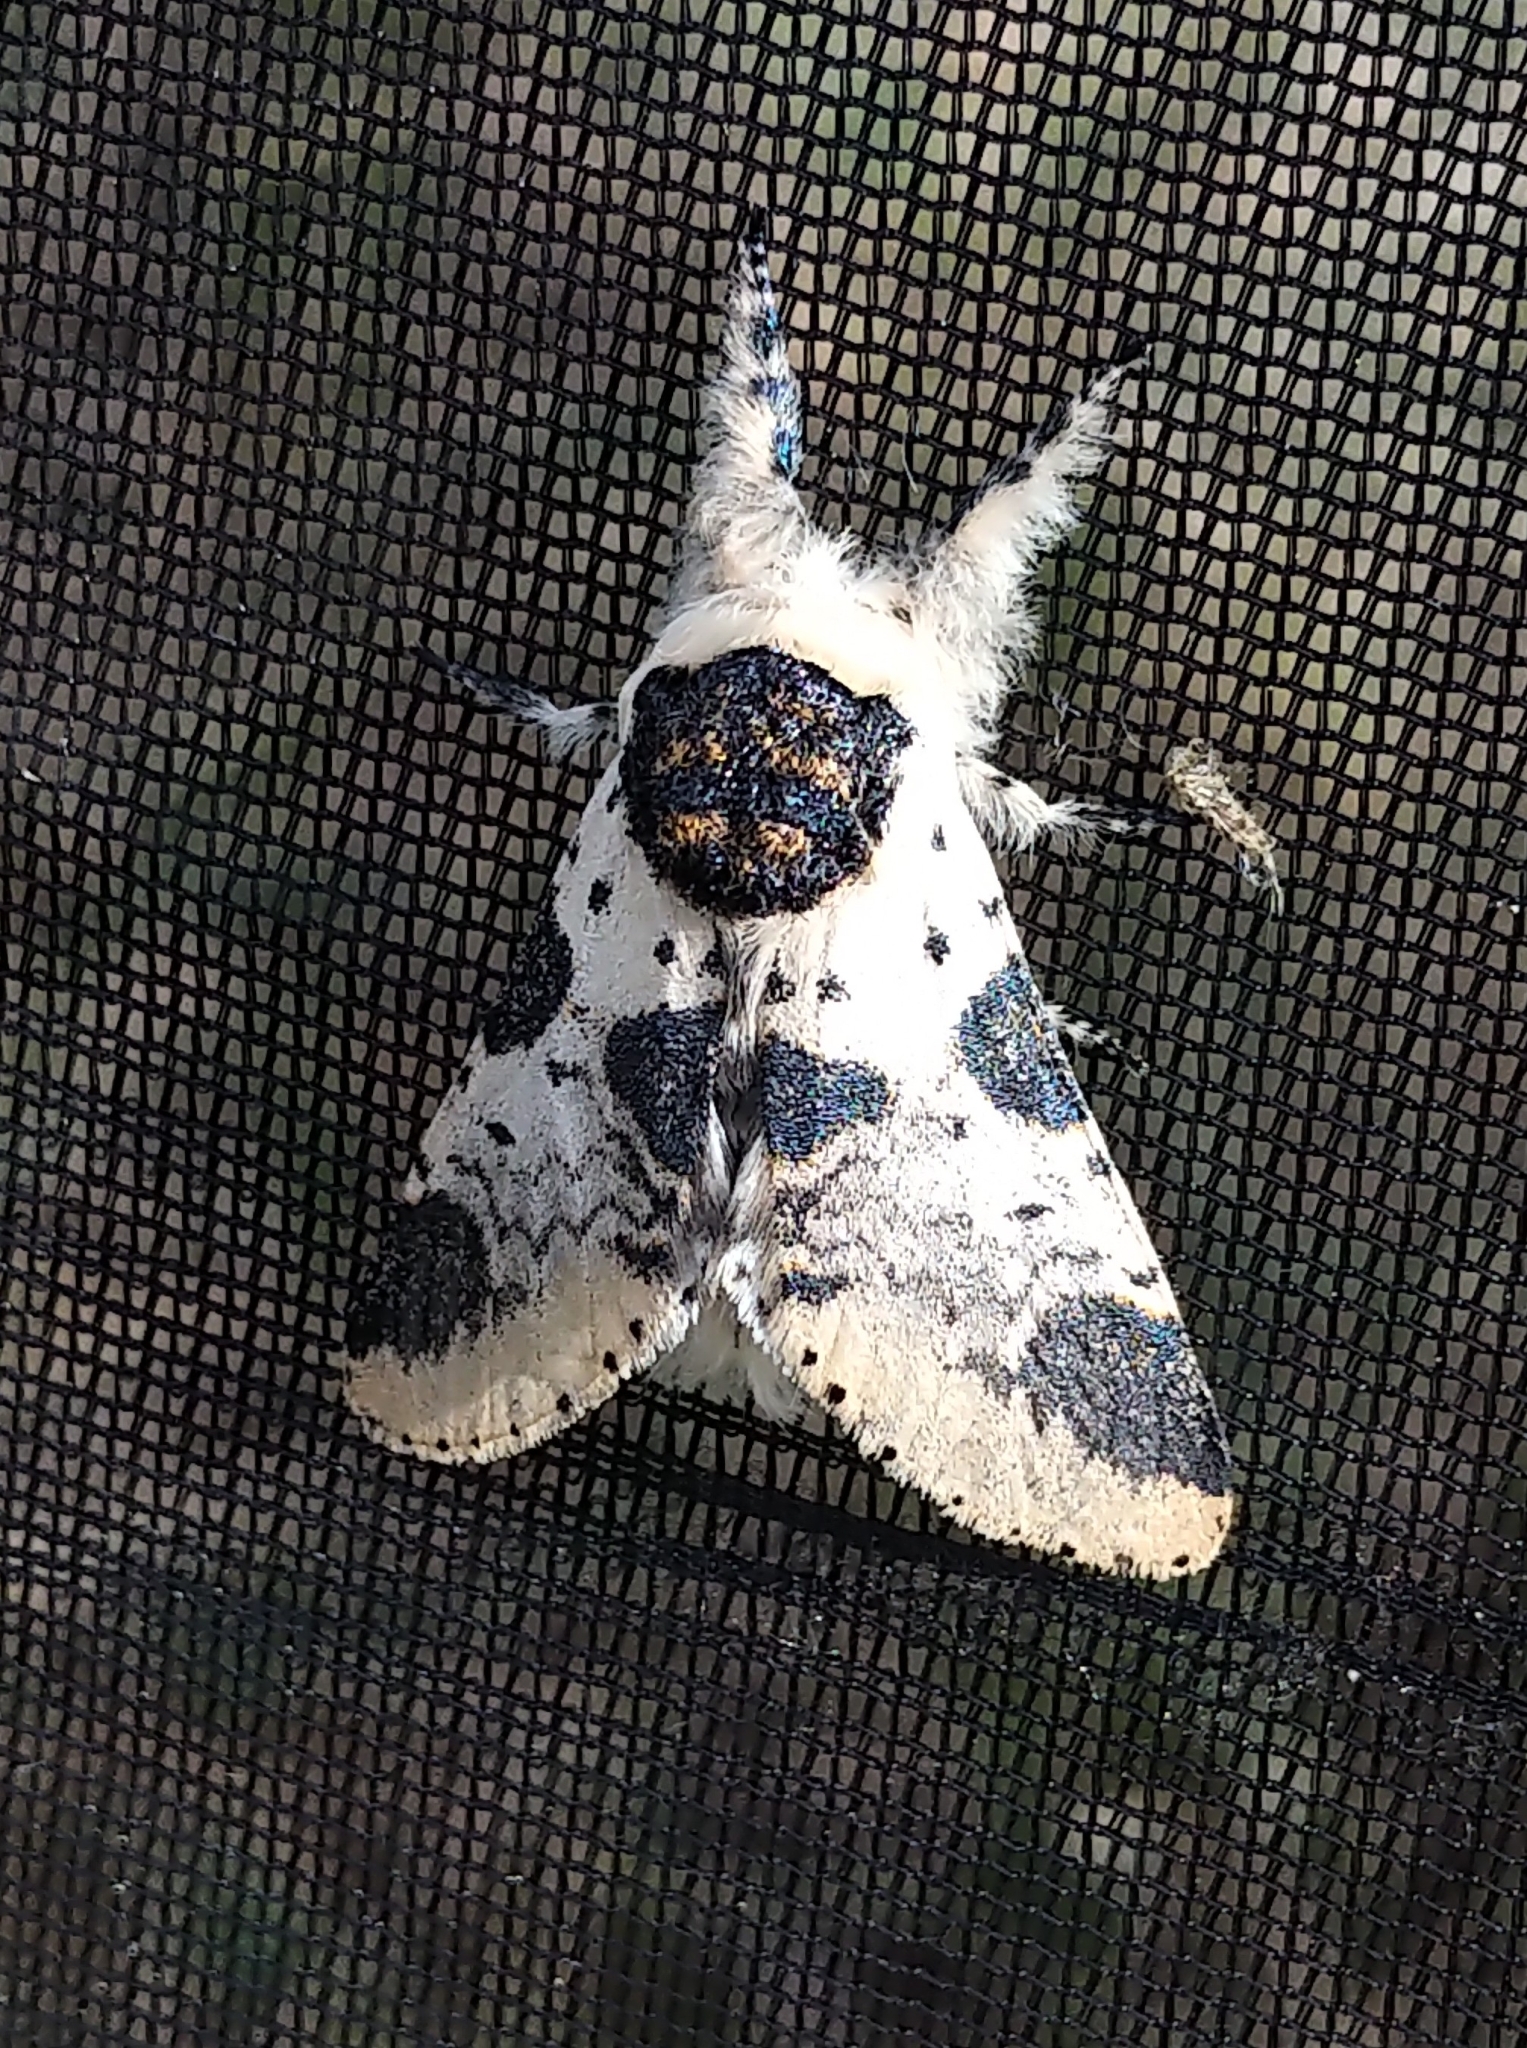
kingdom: Animalia
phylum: Arthropoda
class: Insecta
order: Lepidoptera
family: Notodontidae
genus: Furcula
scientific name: Furcula modesta
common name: Modest furcula moth
